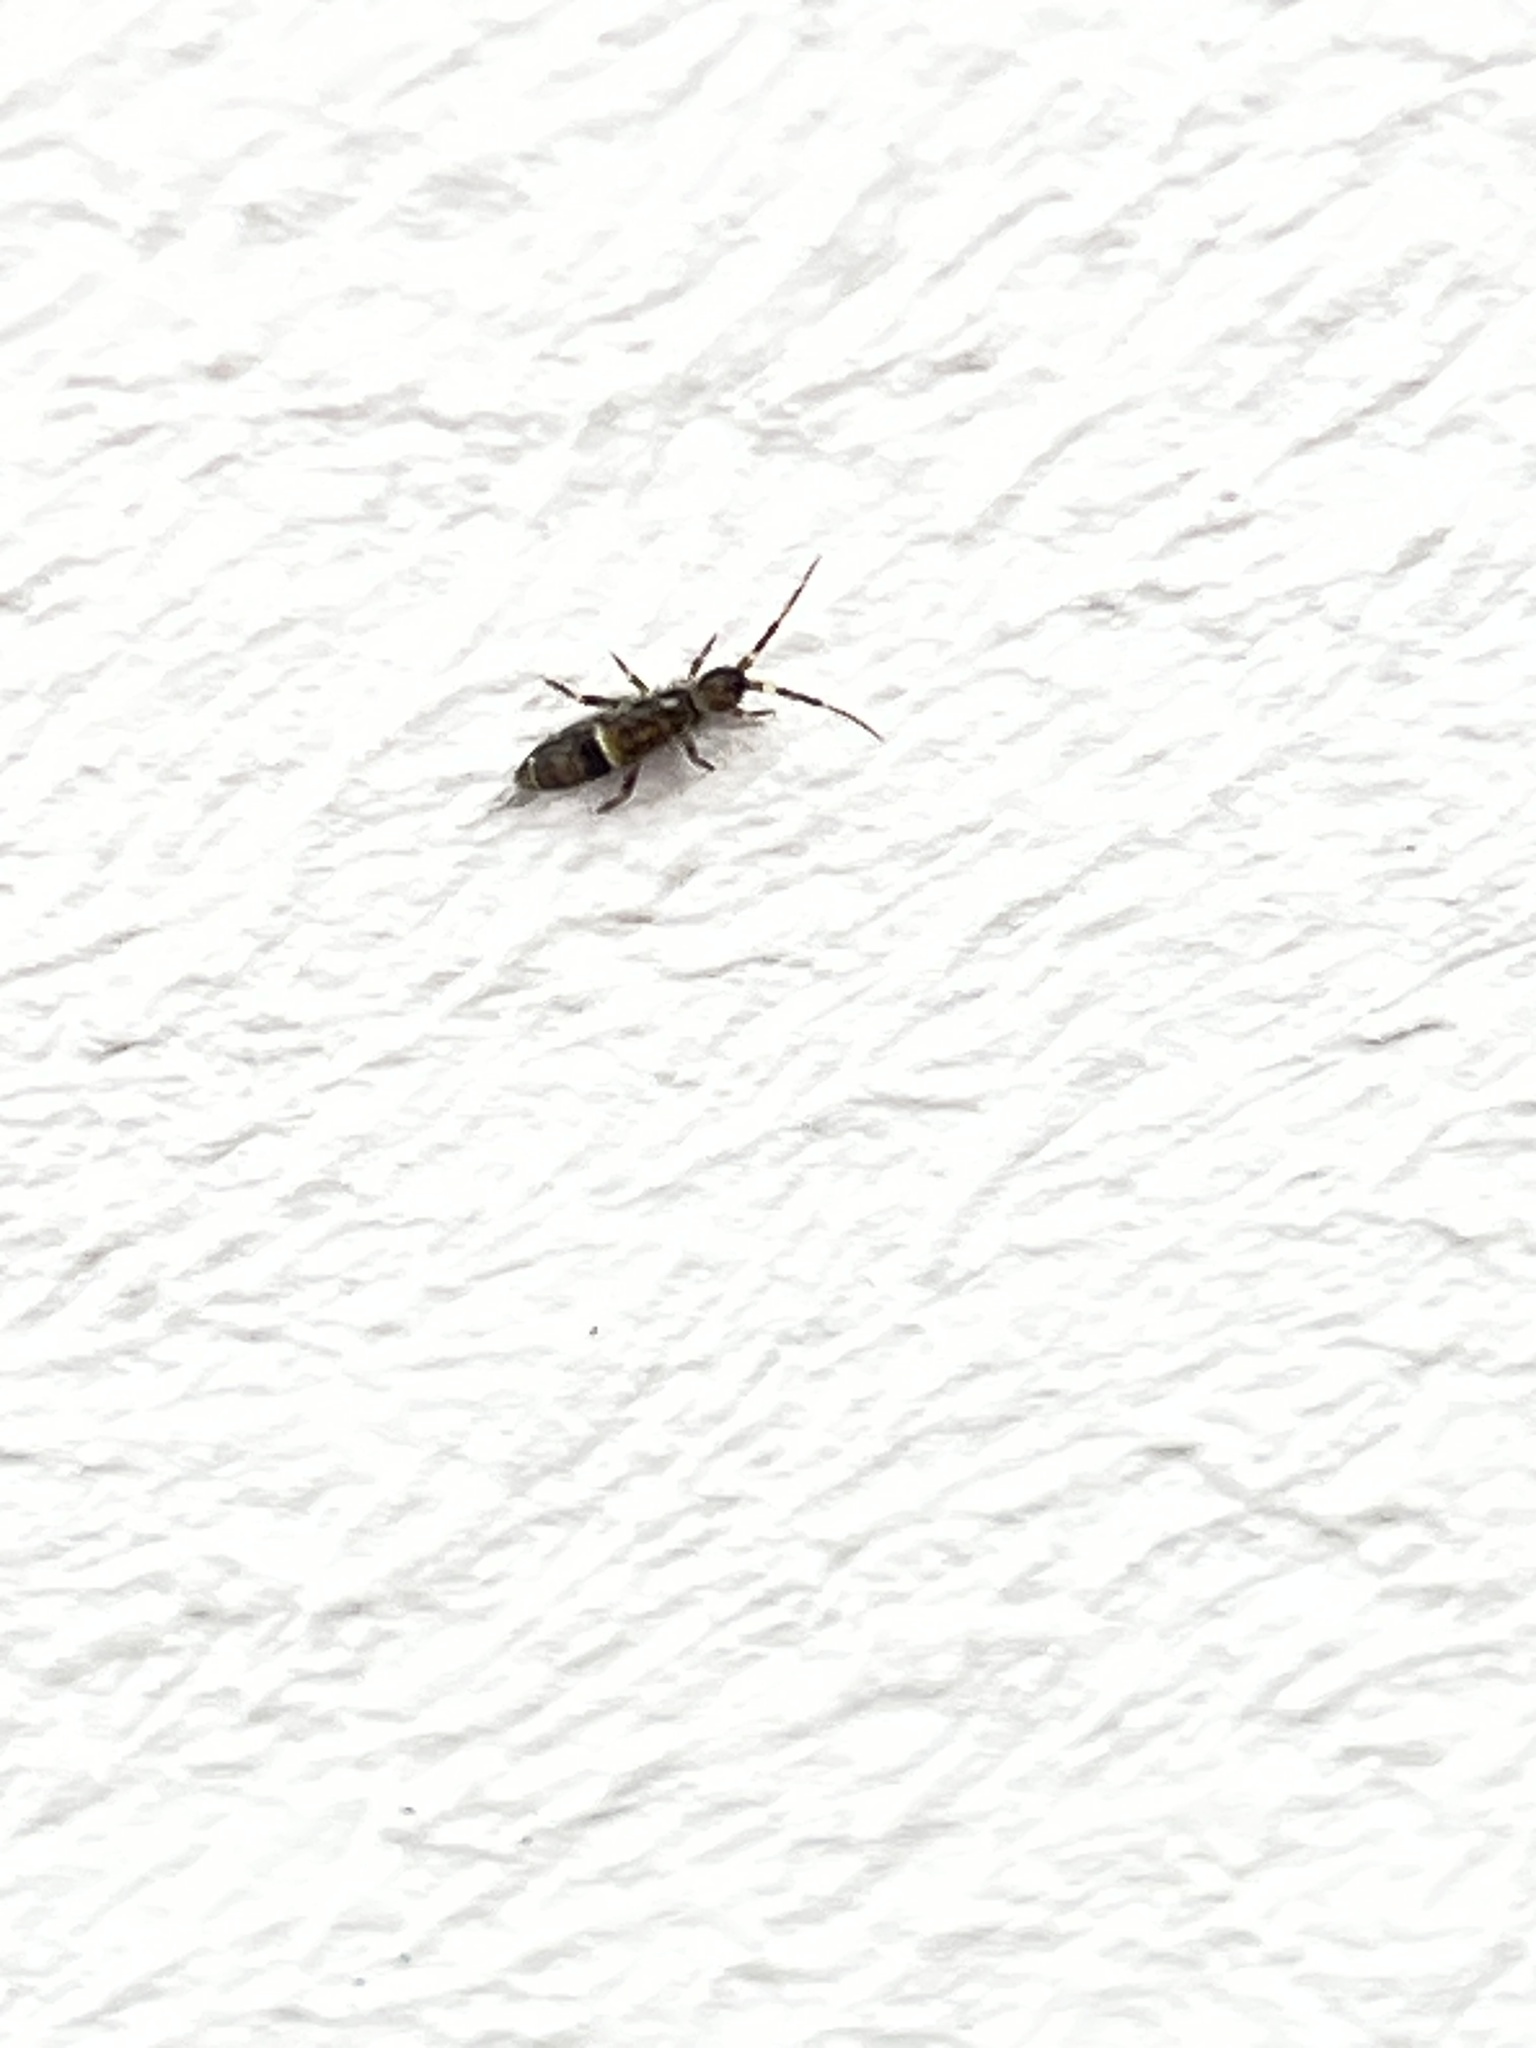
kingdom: Animalia
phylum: Arthropoda
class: Collembola
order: Entomobryomorpha
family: Orchesellidae
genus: Orchesella
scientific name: Orchesella cincta
